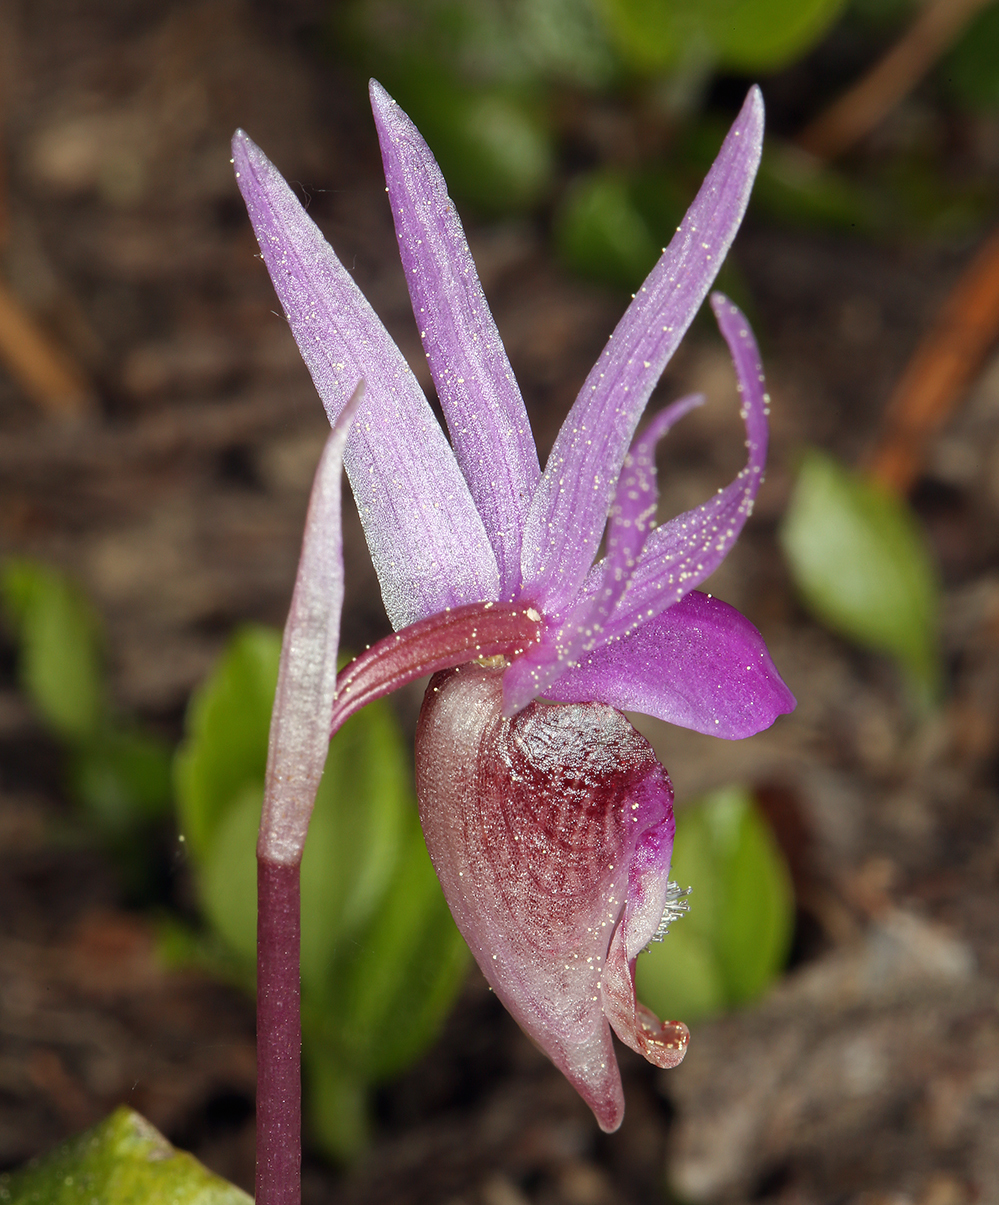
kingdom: Plantae
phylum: Tracheophyta
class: Liliopsida
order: Asparagales
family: Orchidaceae
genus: Calypso
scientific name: Calypso bulbosa
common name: Calypso
